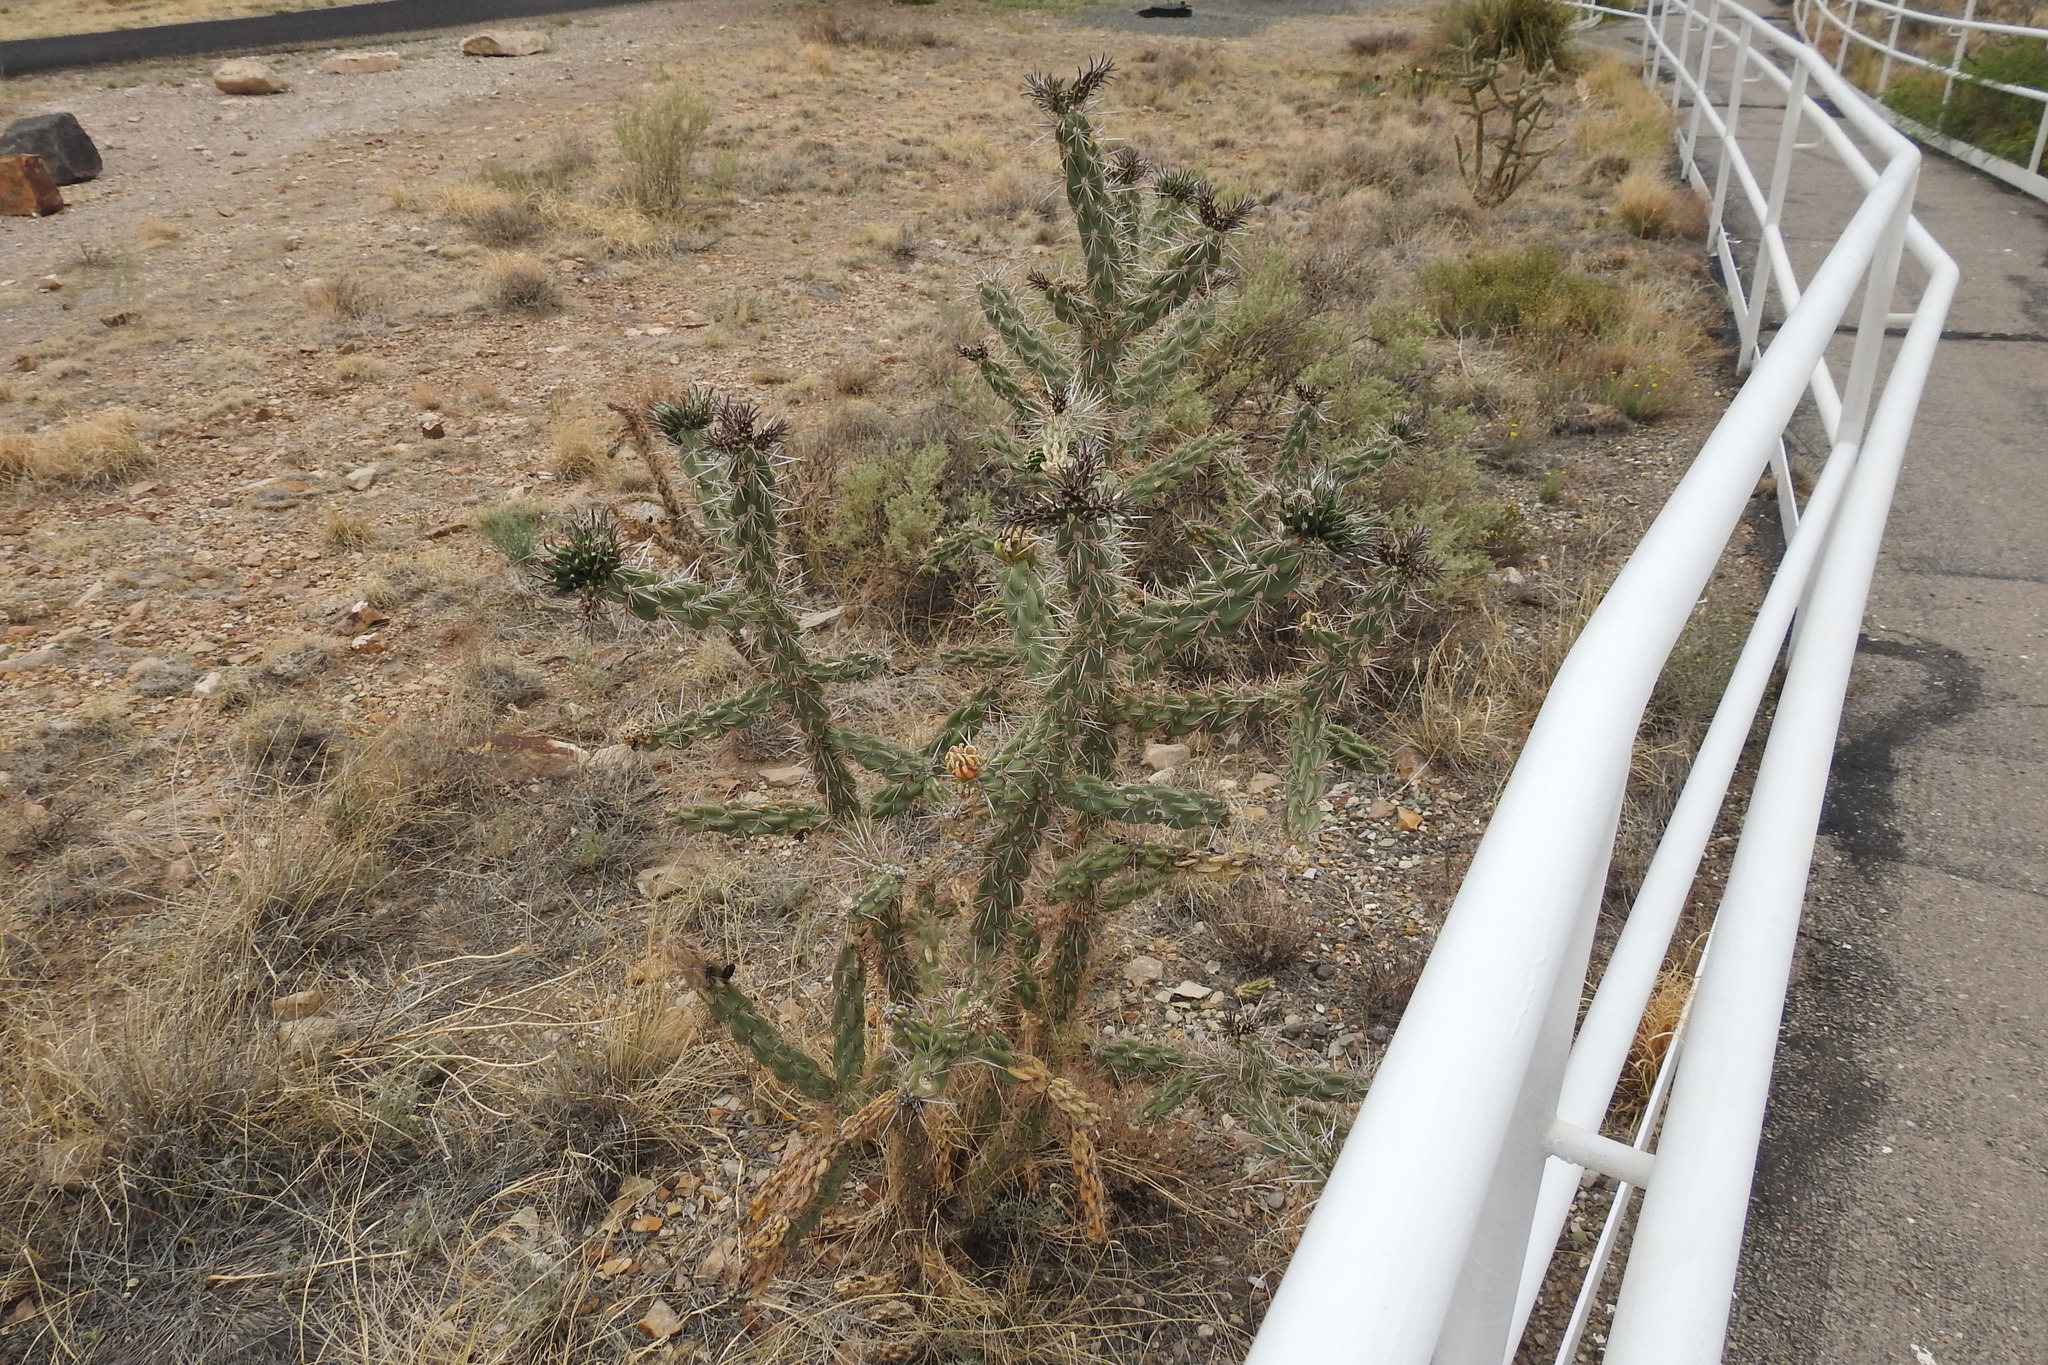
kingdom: Plantae
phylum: Tracheophyta
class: Magnoliopsida
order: Caryophyllales
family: Cactaceae
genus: Cylindropuntia
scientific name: Cylindropuntia imbricata
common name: Candelabrum cactus
